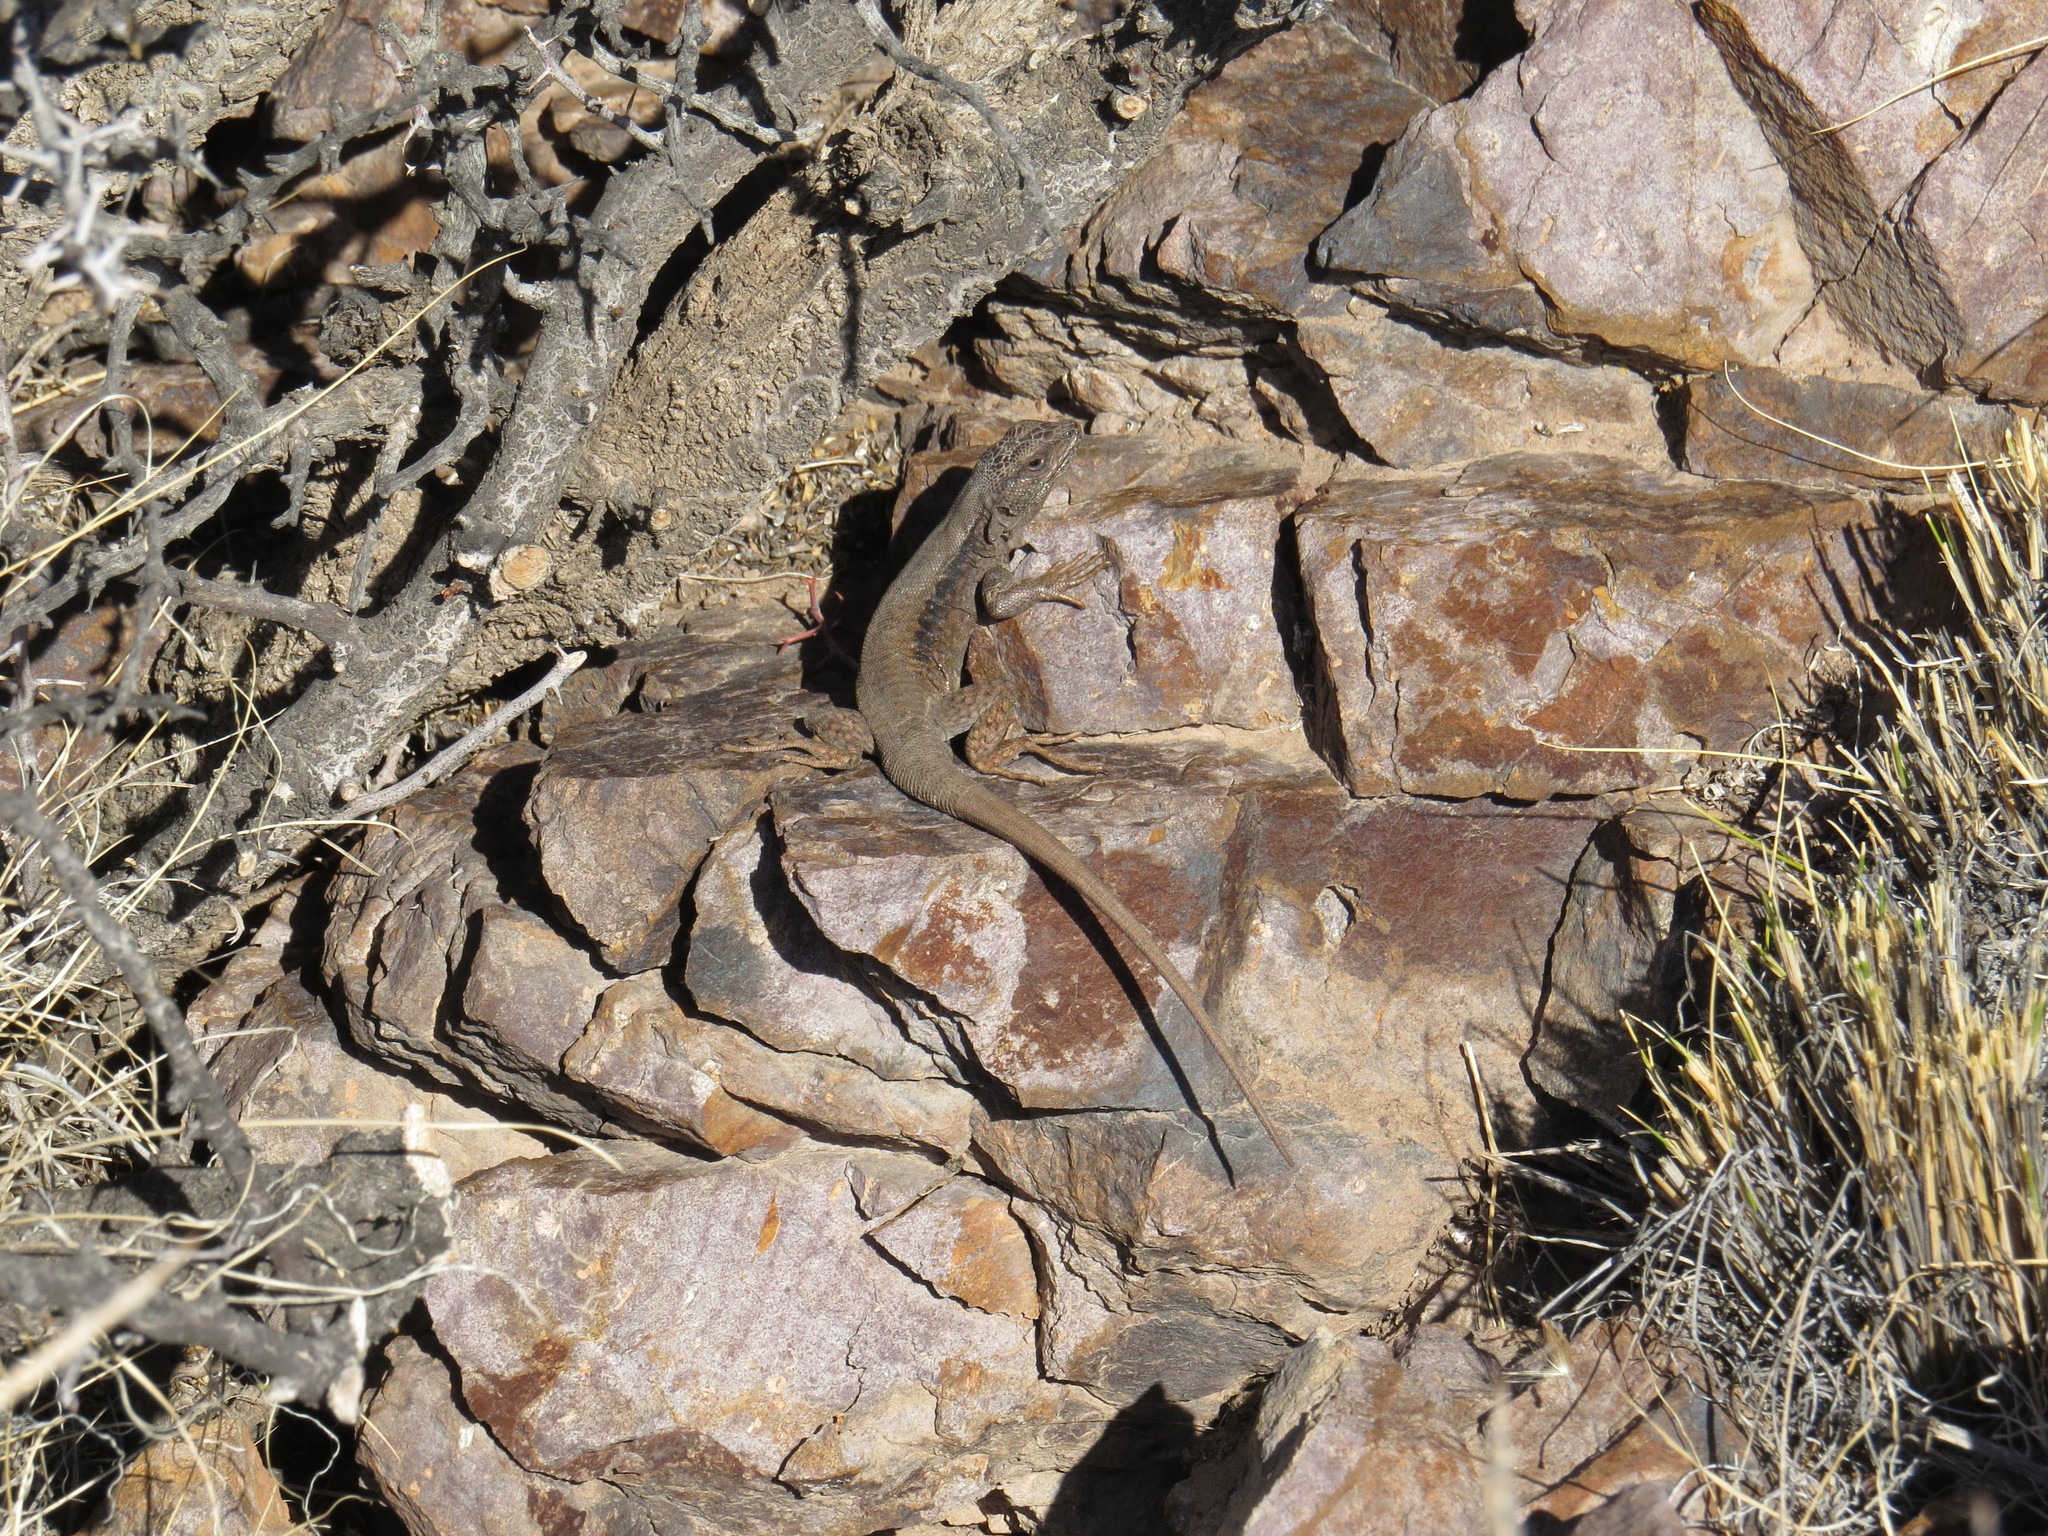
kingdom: Animalia
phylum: Chordata
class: Squamata
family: Liolaemidae
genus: Liolaemus
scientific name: Liolaemus parvus
